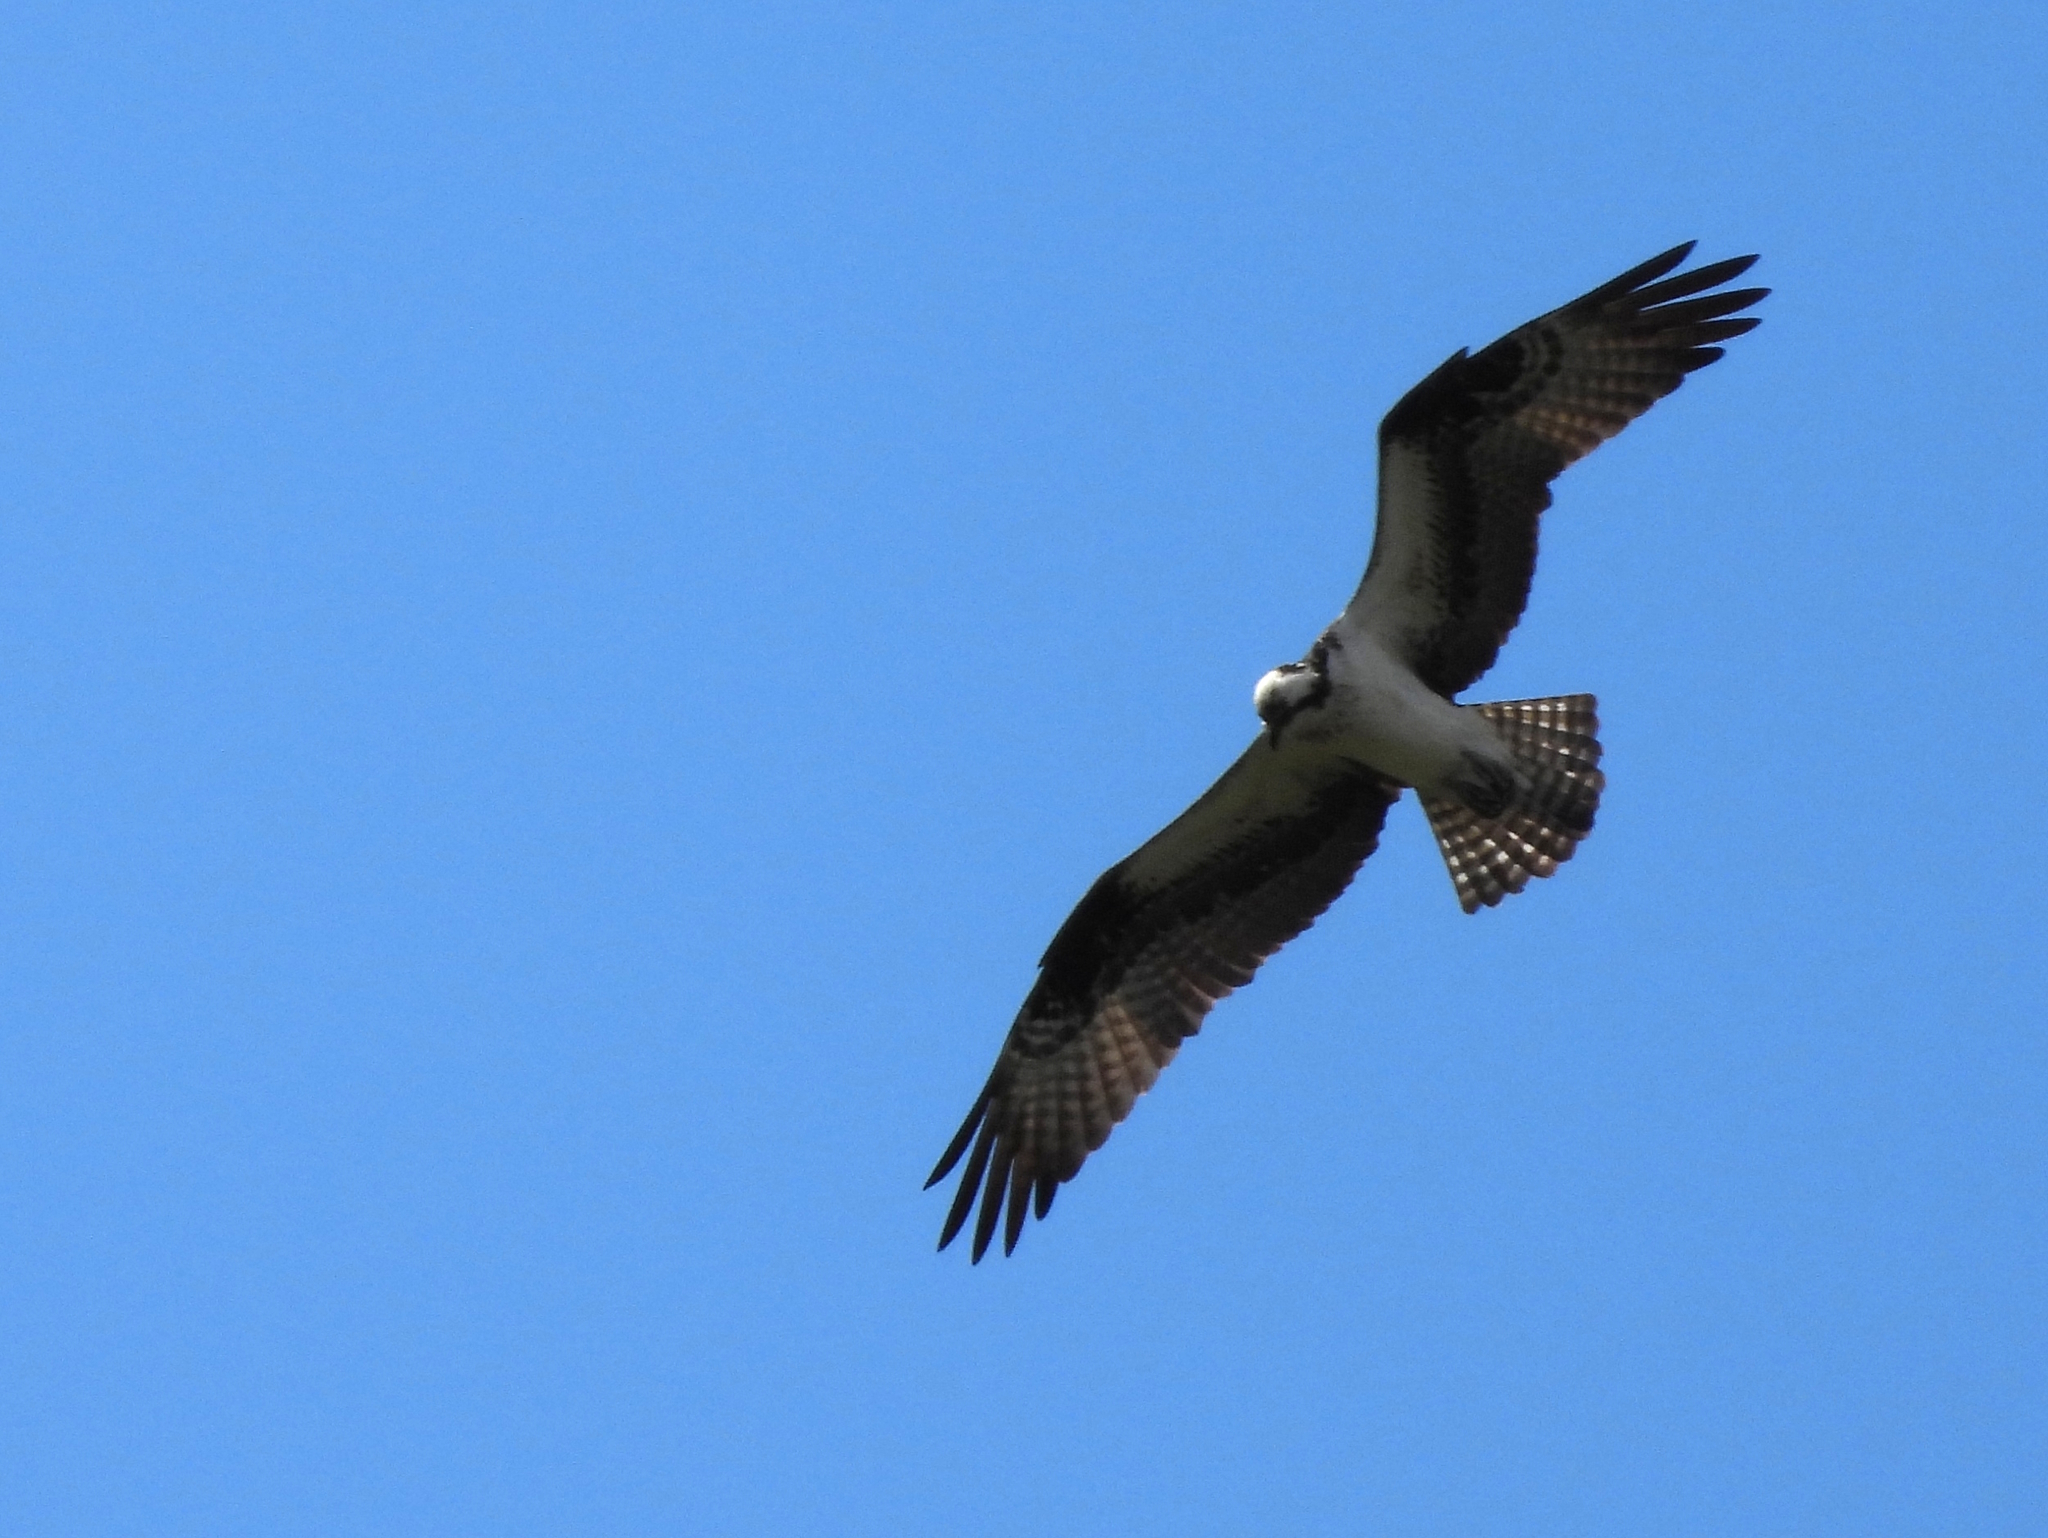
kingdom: Animalia
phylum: Chordata
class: Aves
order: Accipitriformes
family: Pandionidae
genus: Pandion
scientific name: Pandion haliaetus
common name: Osprey
